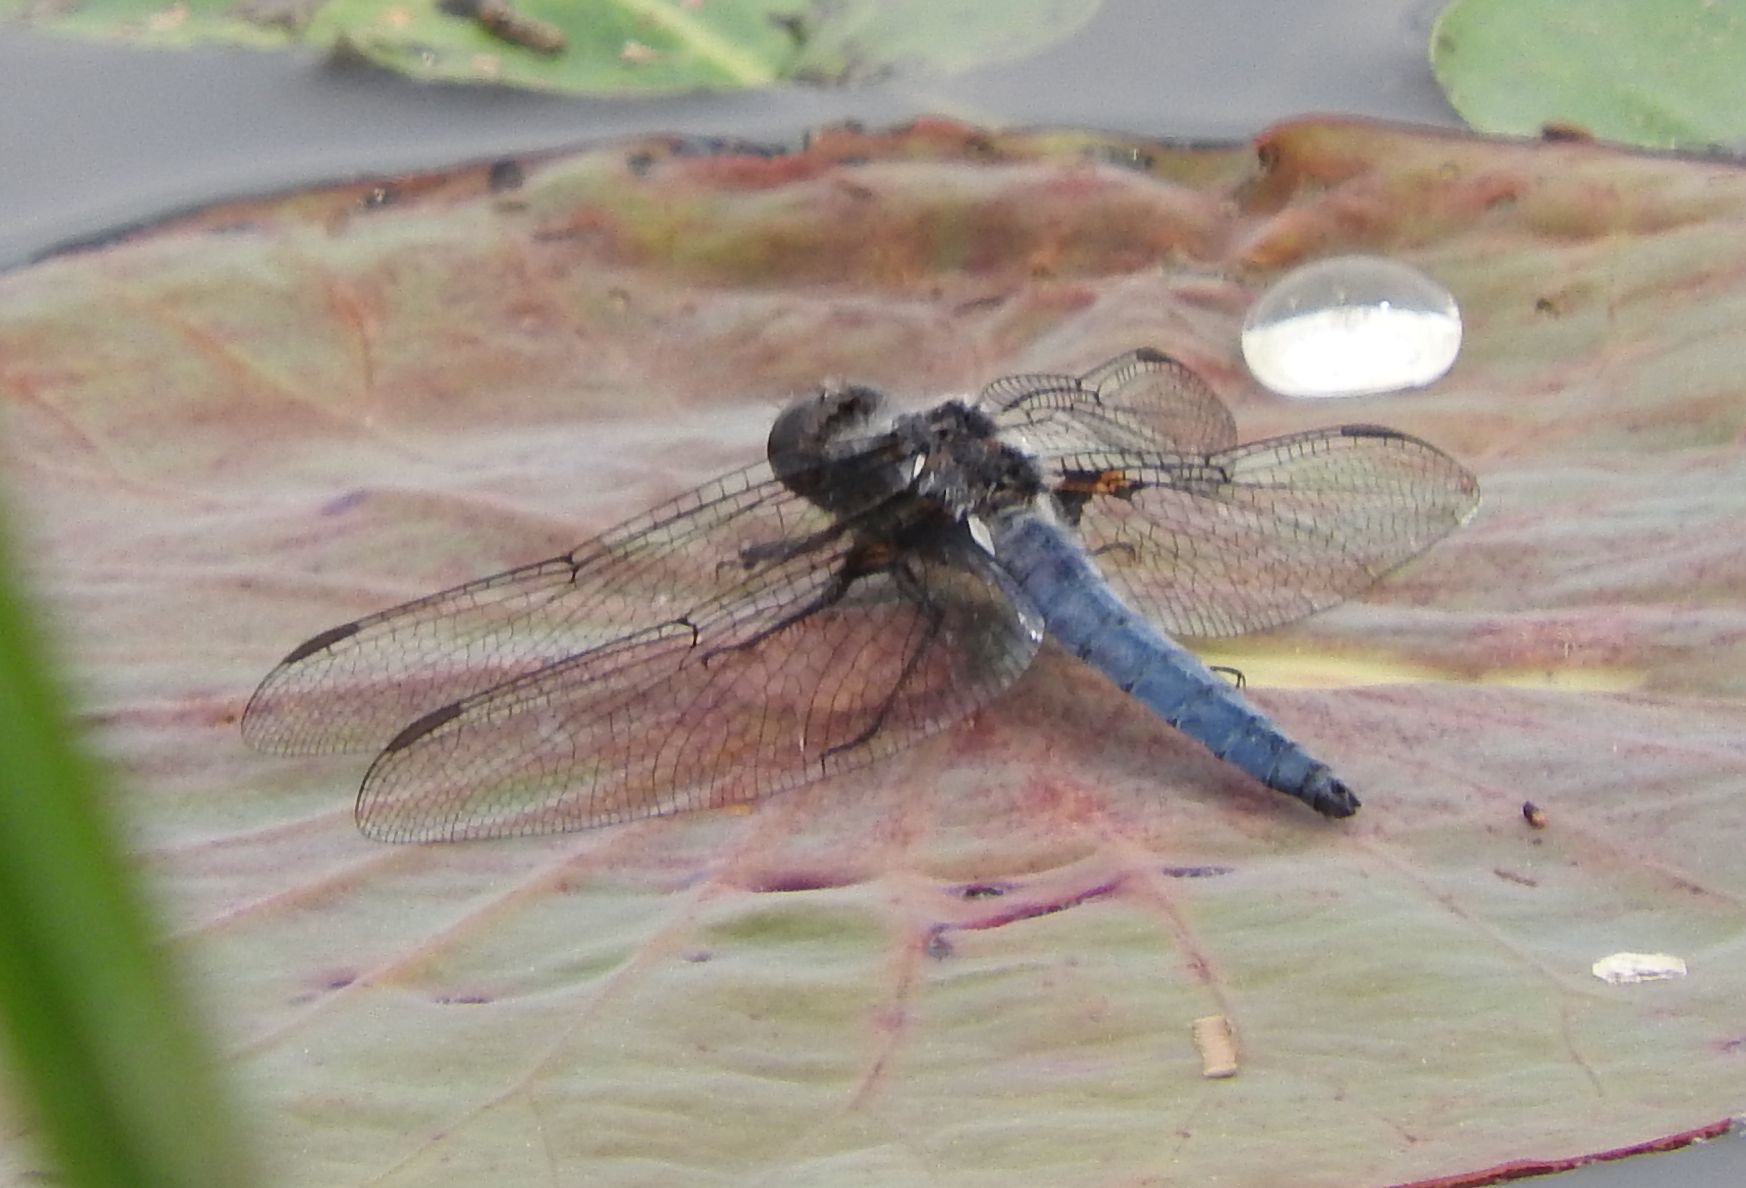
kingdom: Animalia
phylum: Arthropoda
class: Insecta
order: Odonata
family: Libellulidae
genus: Ladona
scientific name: Ladona deplanata
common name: Blue corporal
